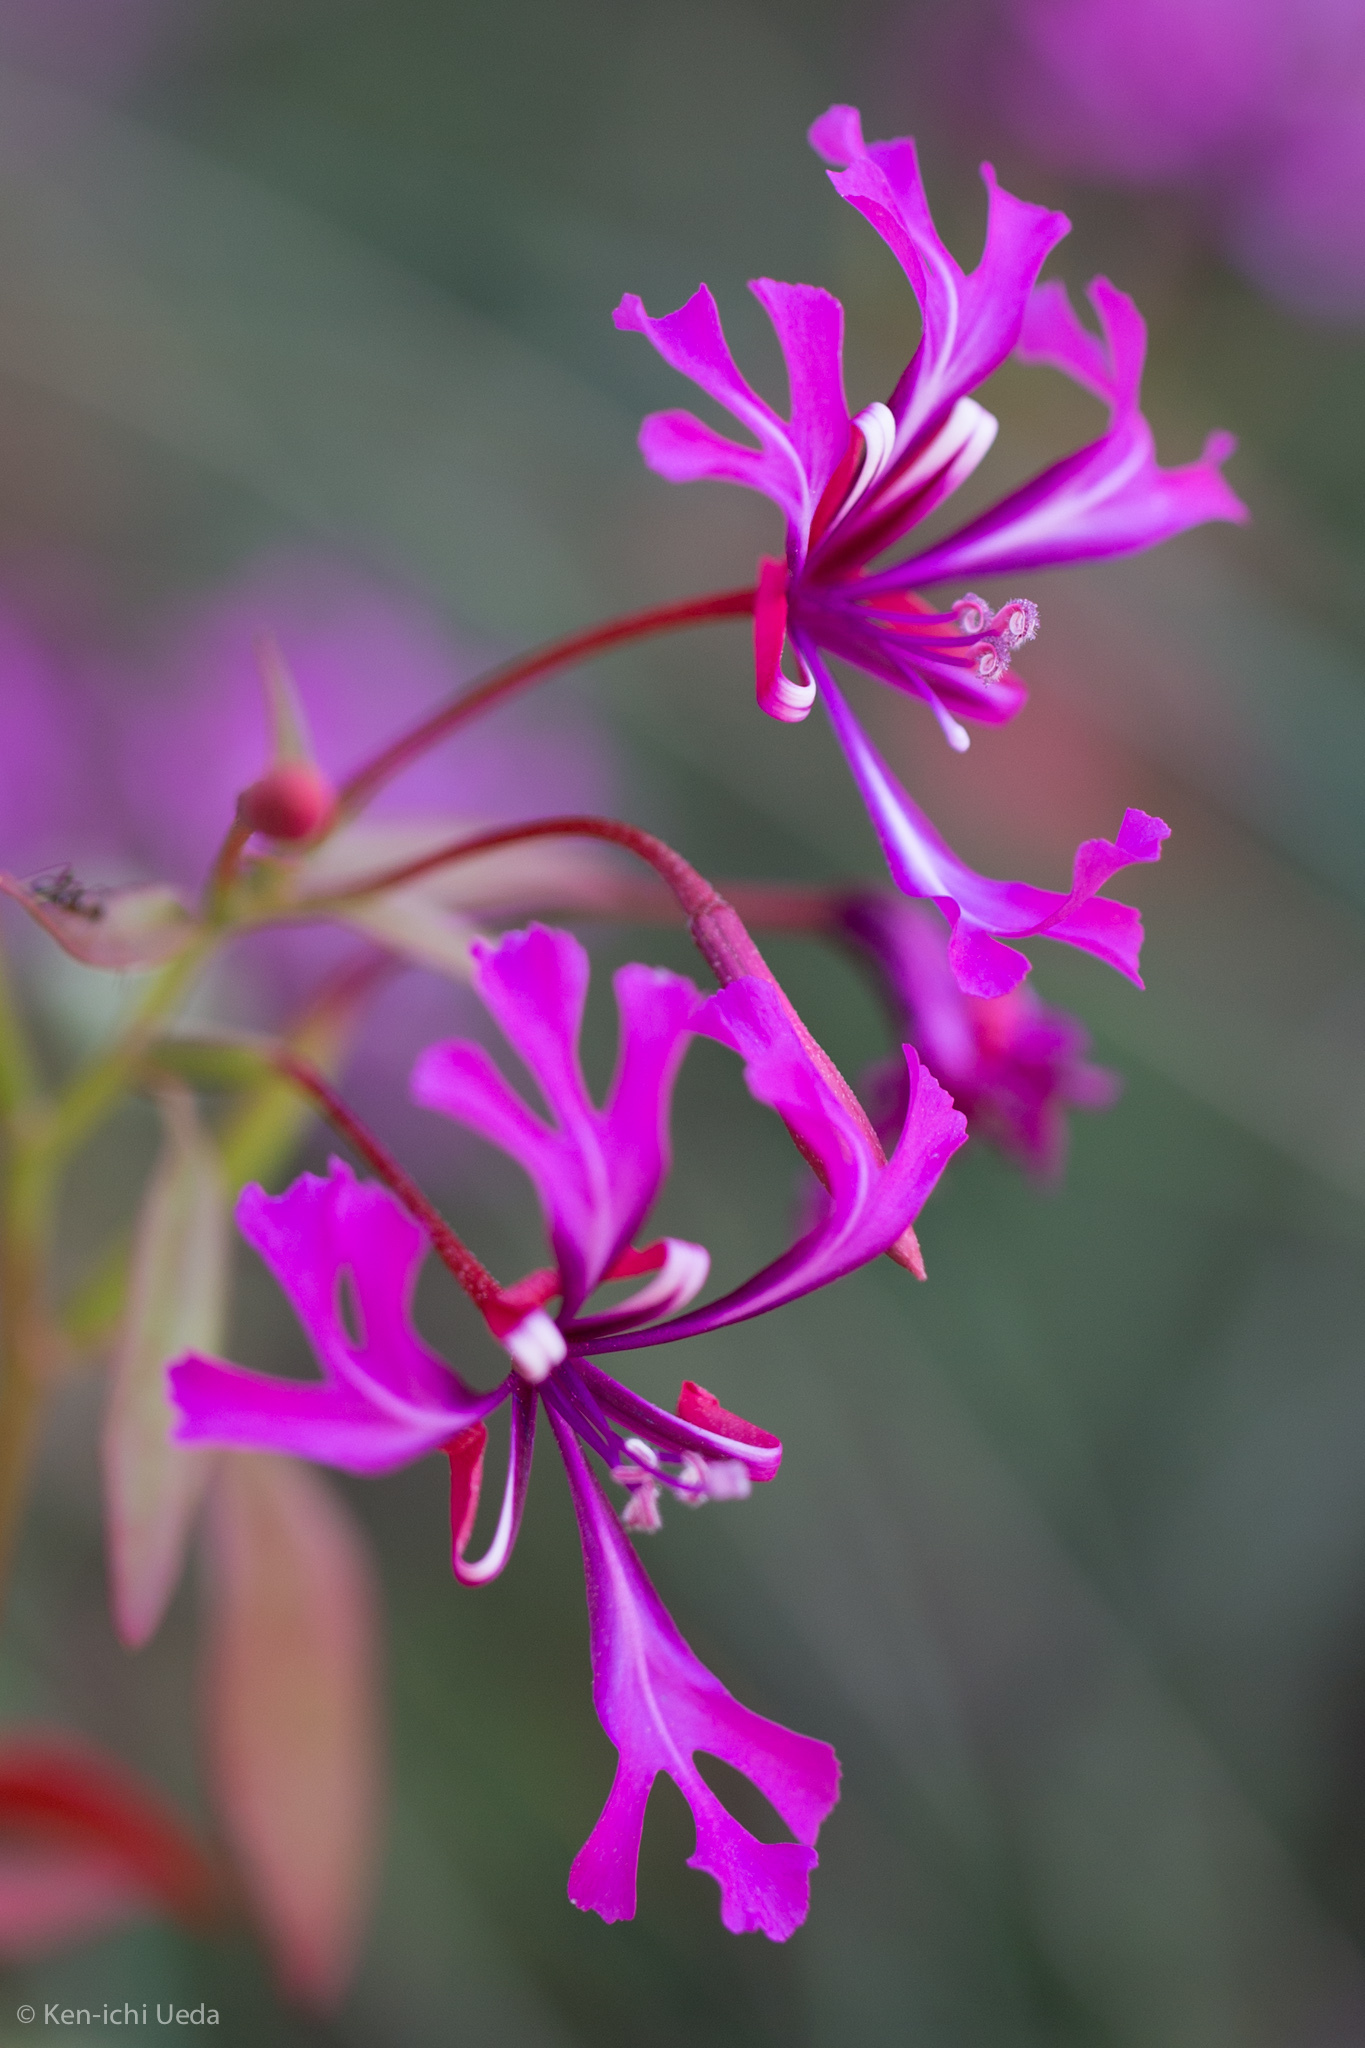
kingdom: Plantae
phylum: Tracheophyta
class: Magnoliopsida
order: Myrtales
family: Onagraceae
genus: Clarkia
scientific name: Clarkia concinna
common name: Red-ribbons
